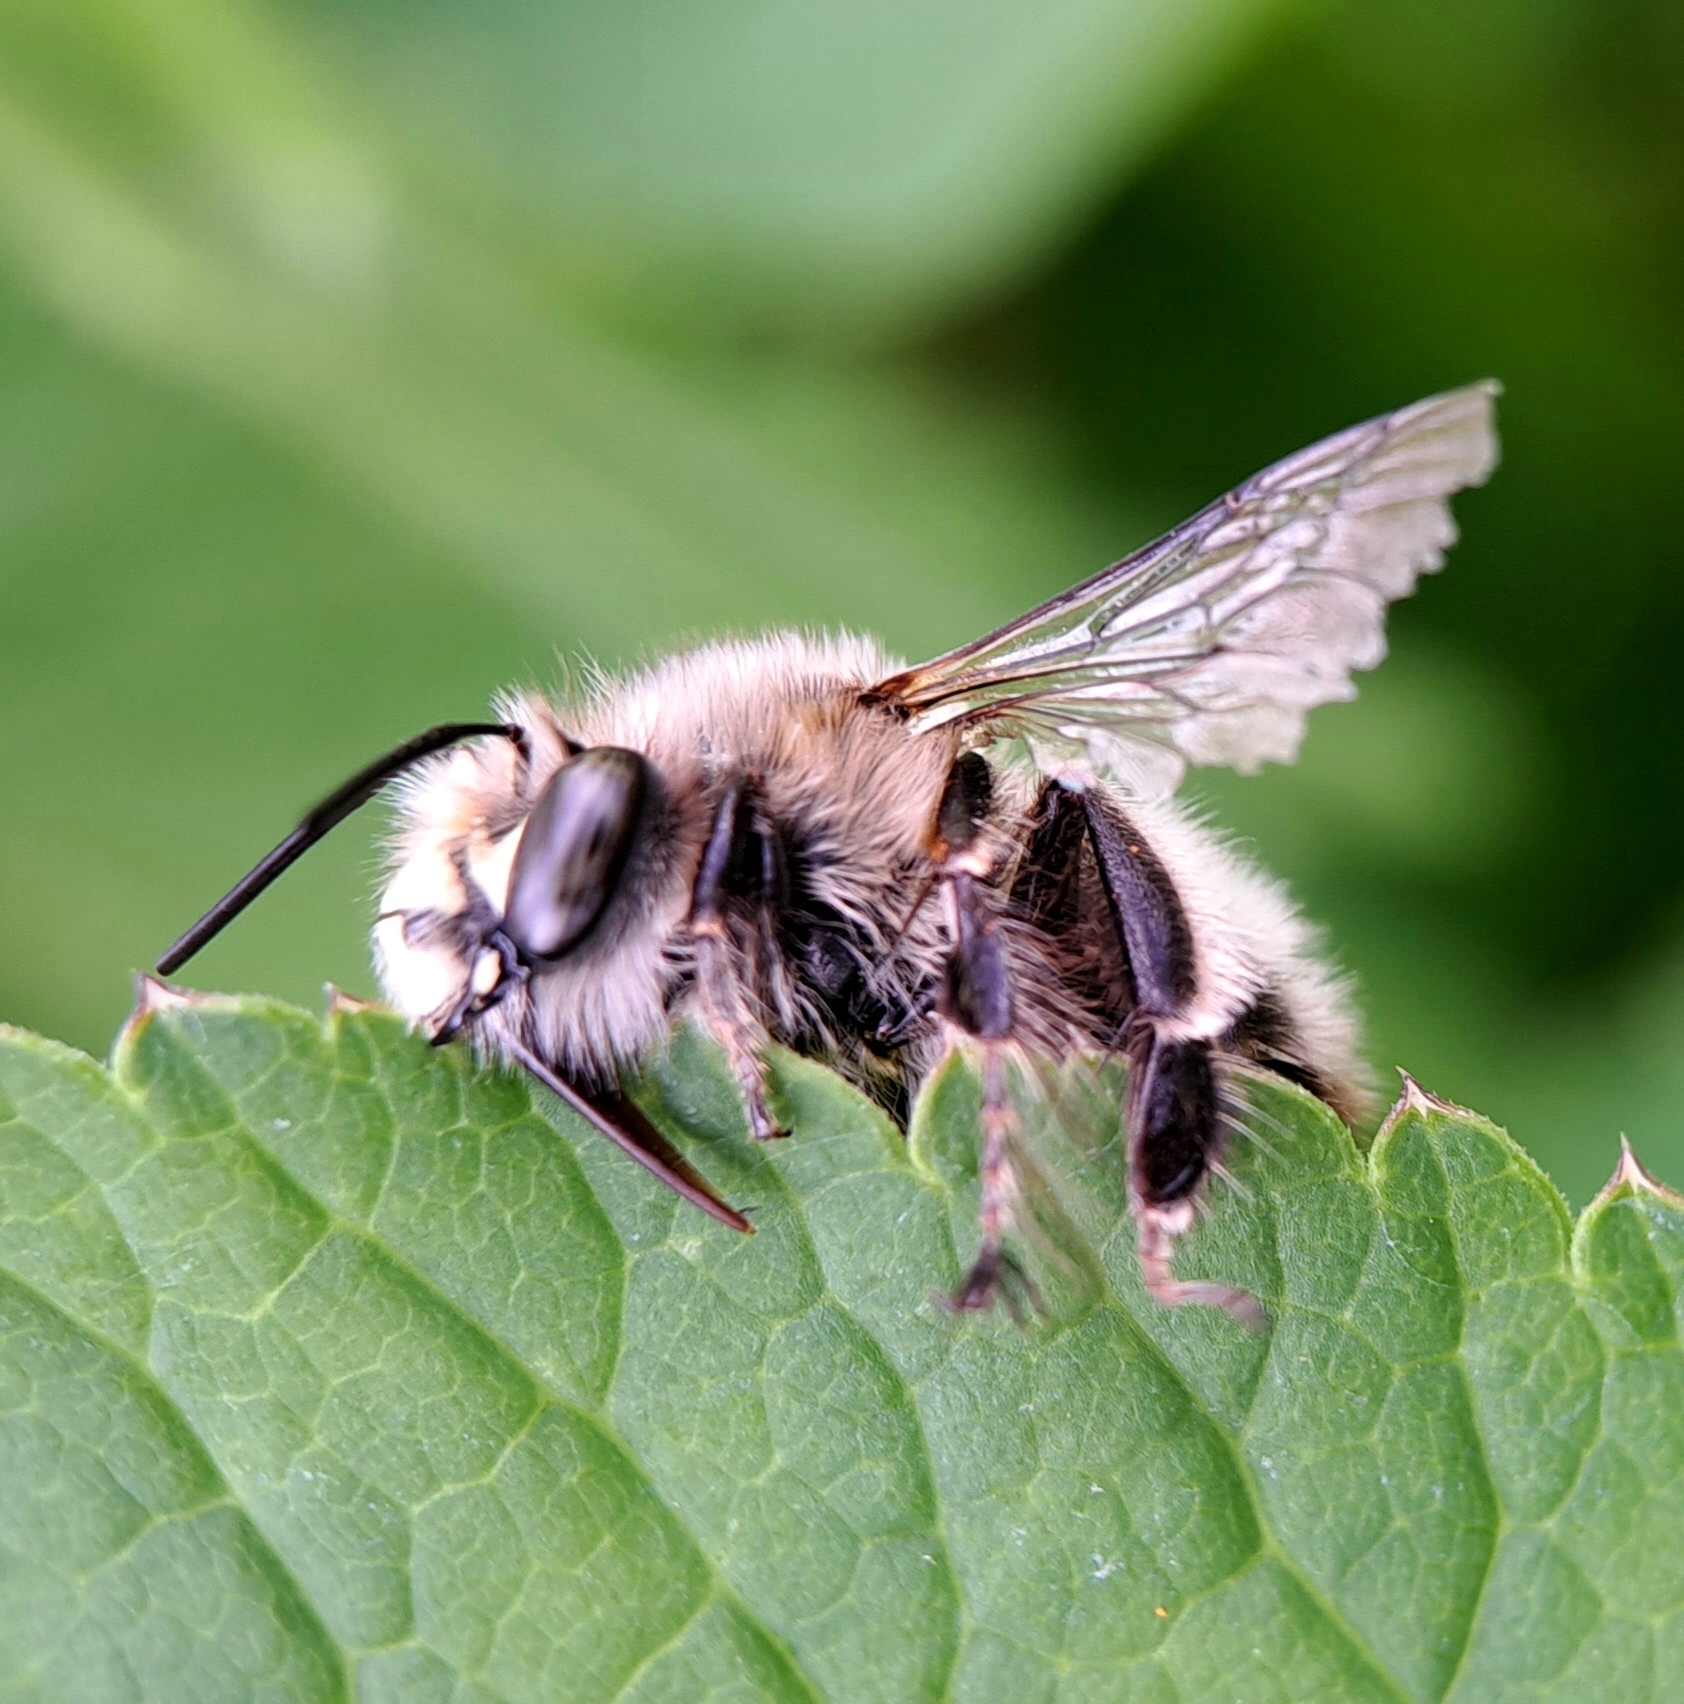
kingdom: Animalia
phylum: Arthropoda
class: Insecta
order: Hymenoptera
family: Apidae
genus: Anthophora
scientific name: Anthophora plumipes
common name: Hairy-footed flower bee
